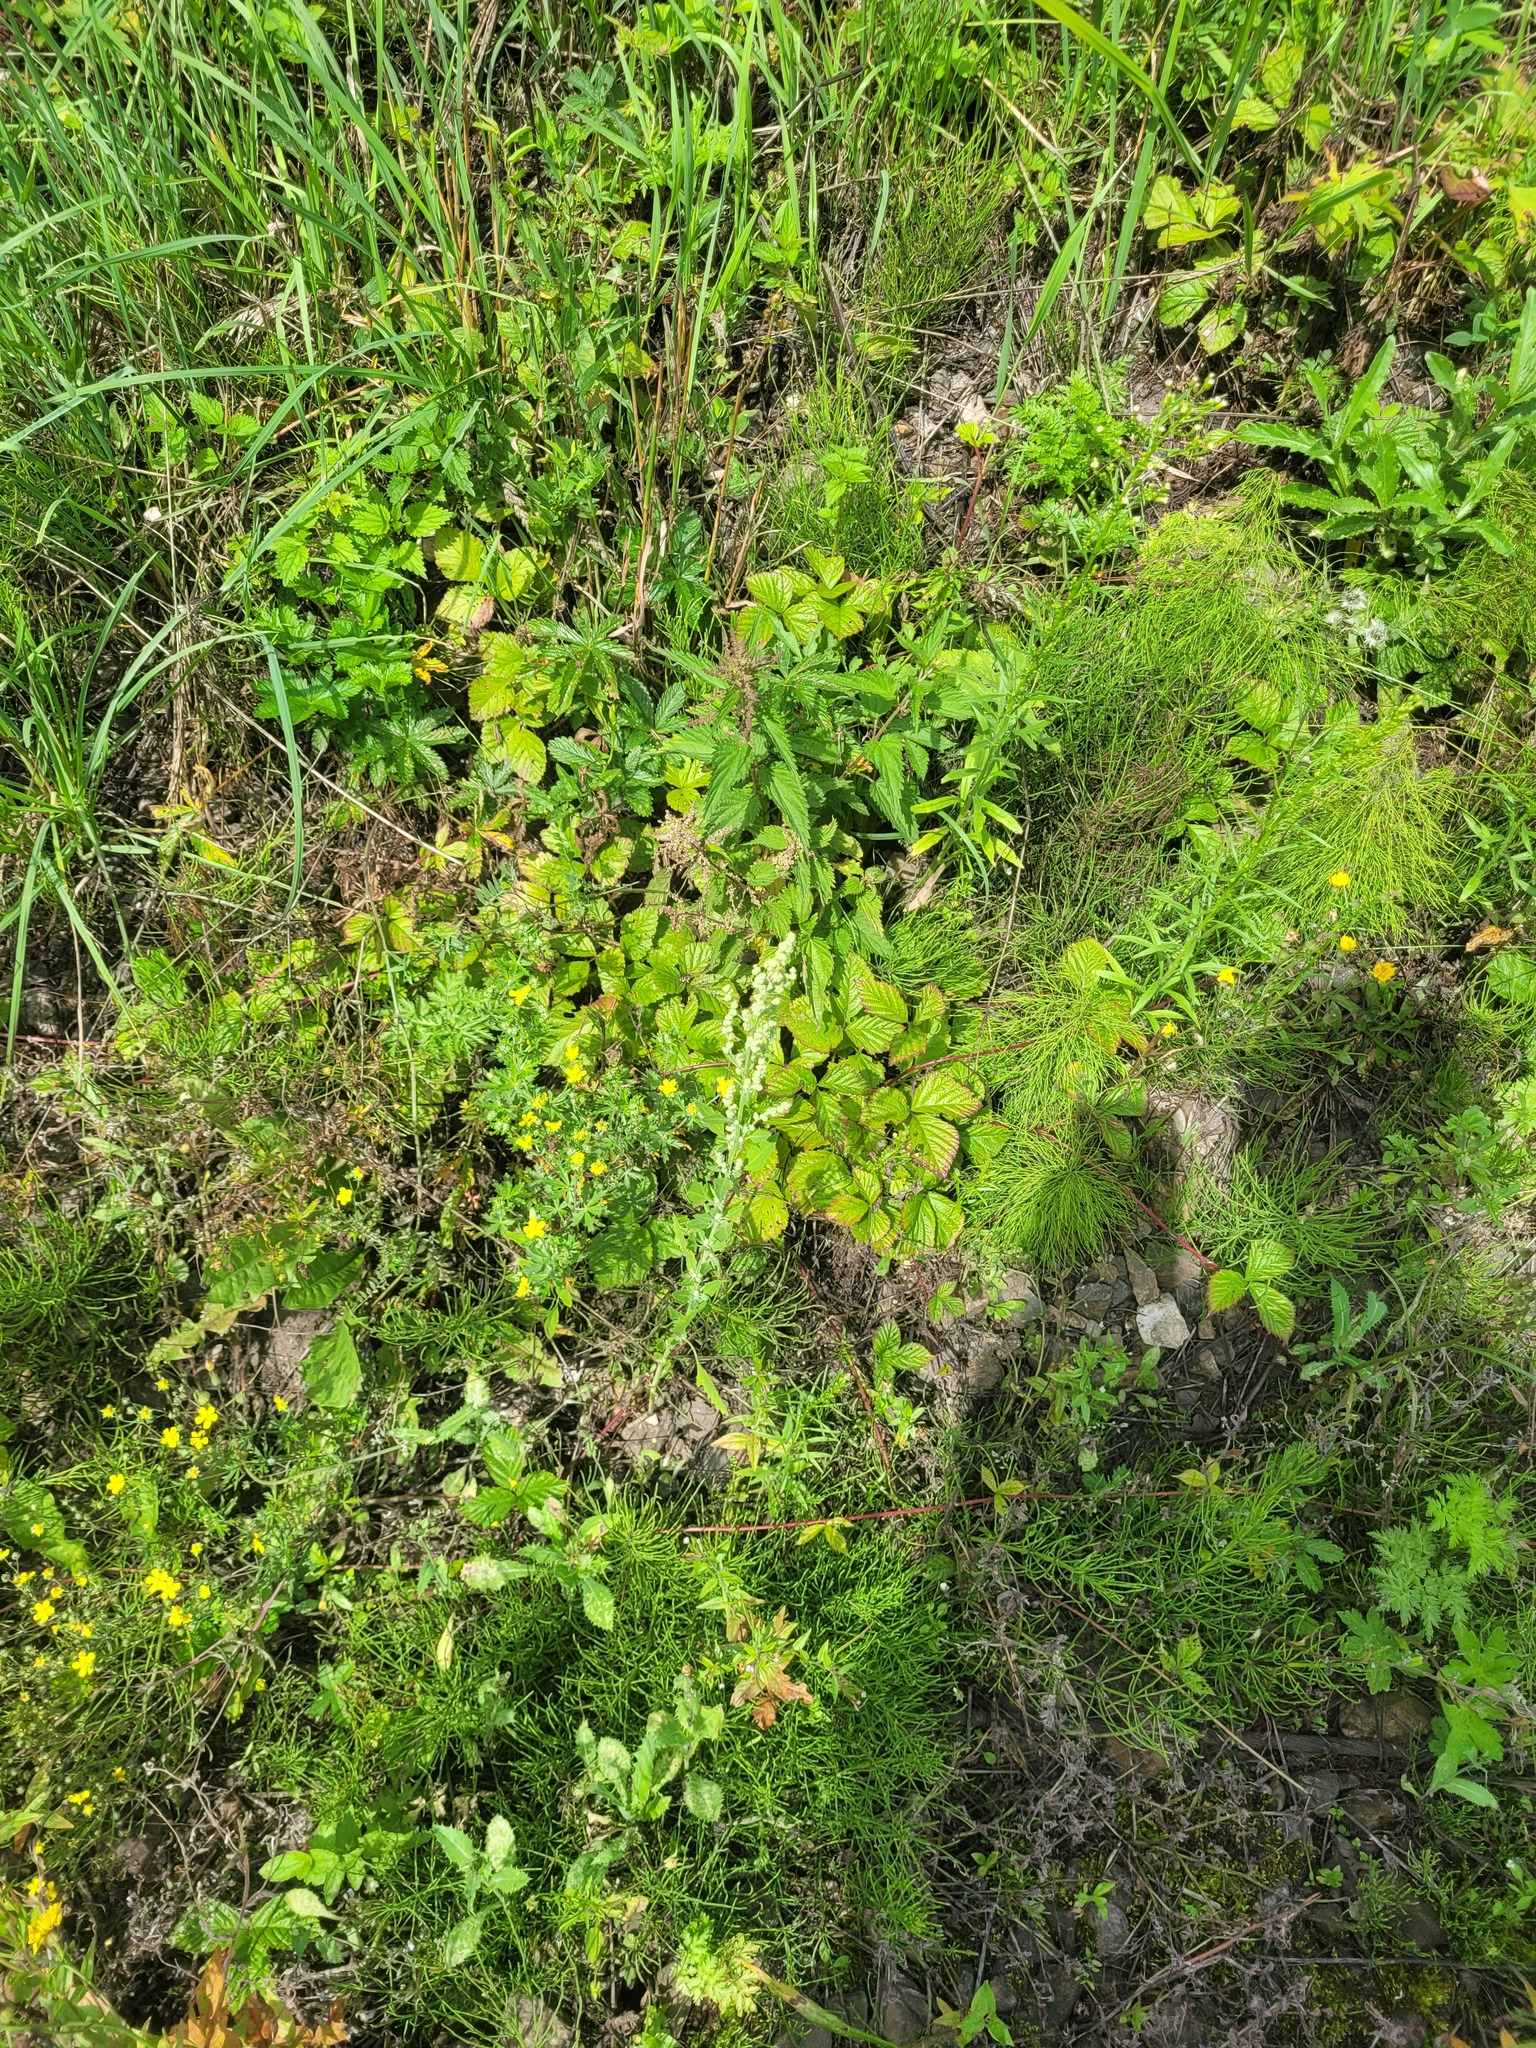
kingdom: Plantae
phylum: Tracheophyta
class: Magnoliopsida
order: Caryophyllales
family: Amaranthaceae
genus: Chenopodium
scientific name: Chenopodium album
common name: Fat-hen
